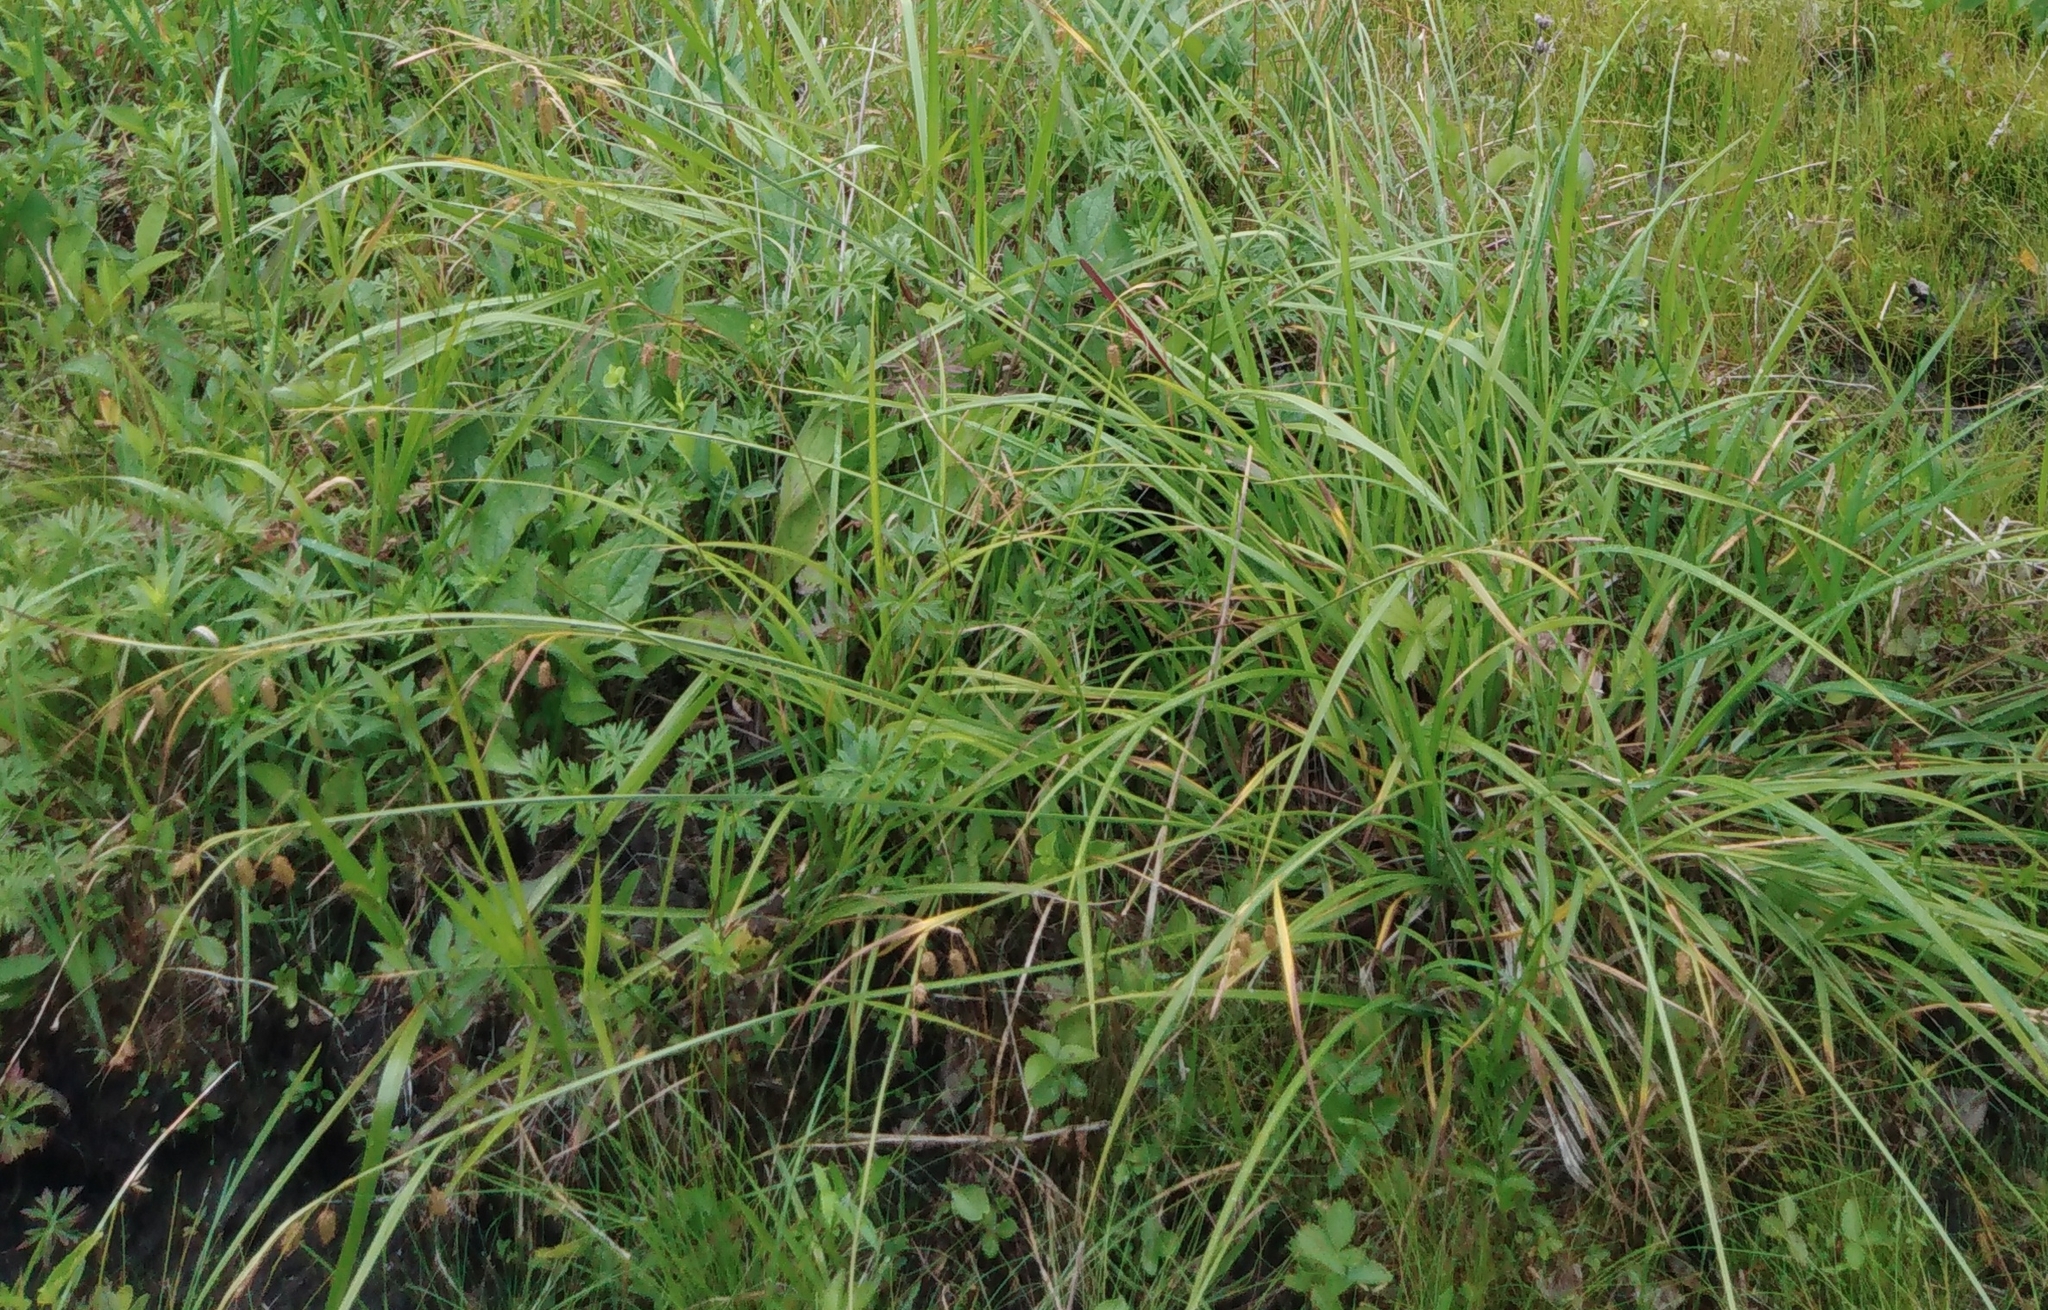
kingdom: Plantae
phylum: Tracheophyta
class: Liliopsida
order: Poales
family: Cyperaceae
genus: Carex
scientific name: Carex suifunensis
